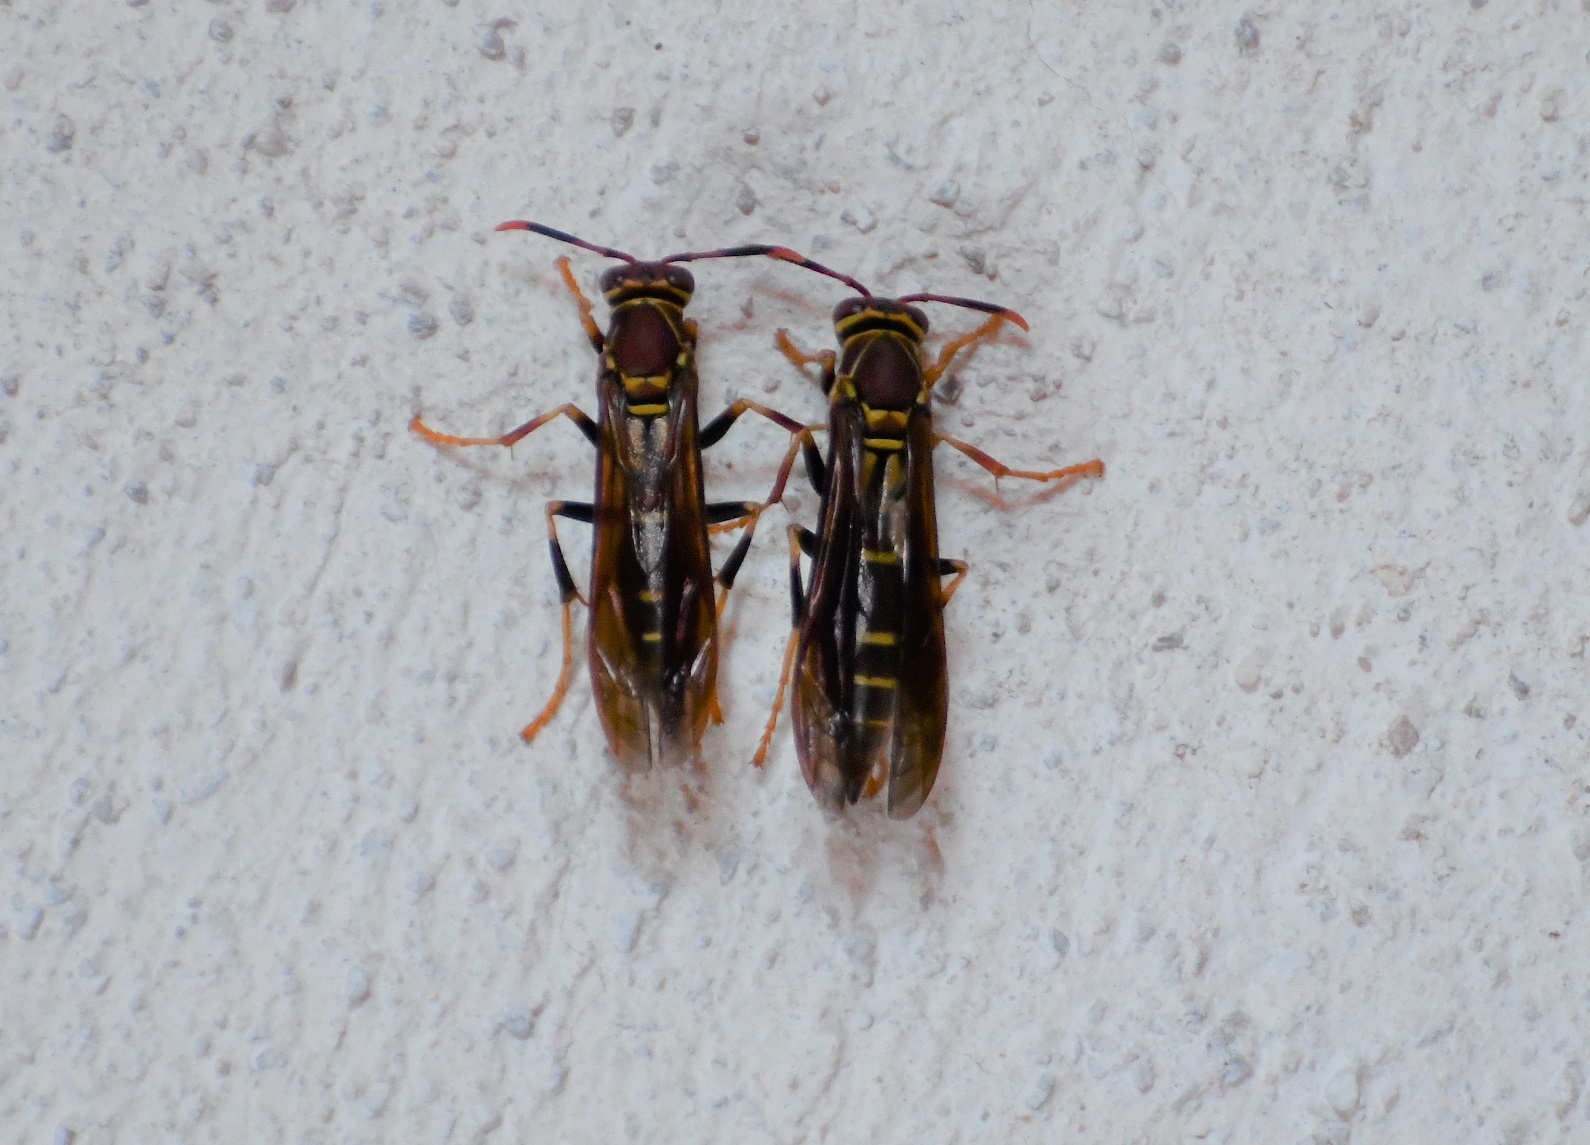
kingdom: Animalia
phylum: Arthropoda
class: Insecta
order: Hymenoptera
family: Eumenidae
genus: Polistes
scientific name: Polistes instabilis
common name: Unstable paper wasp
